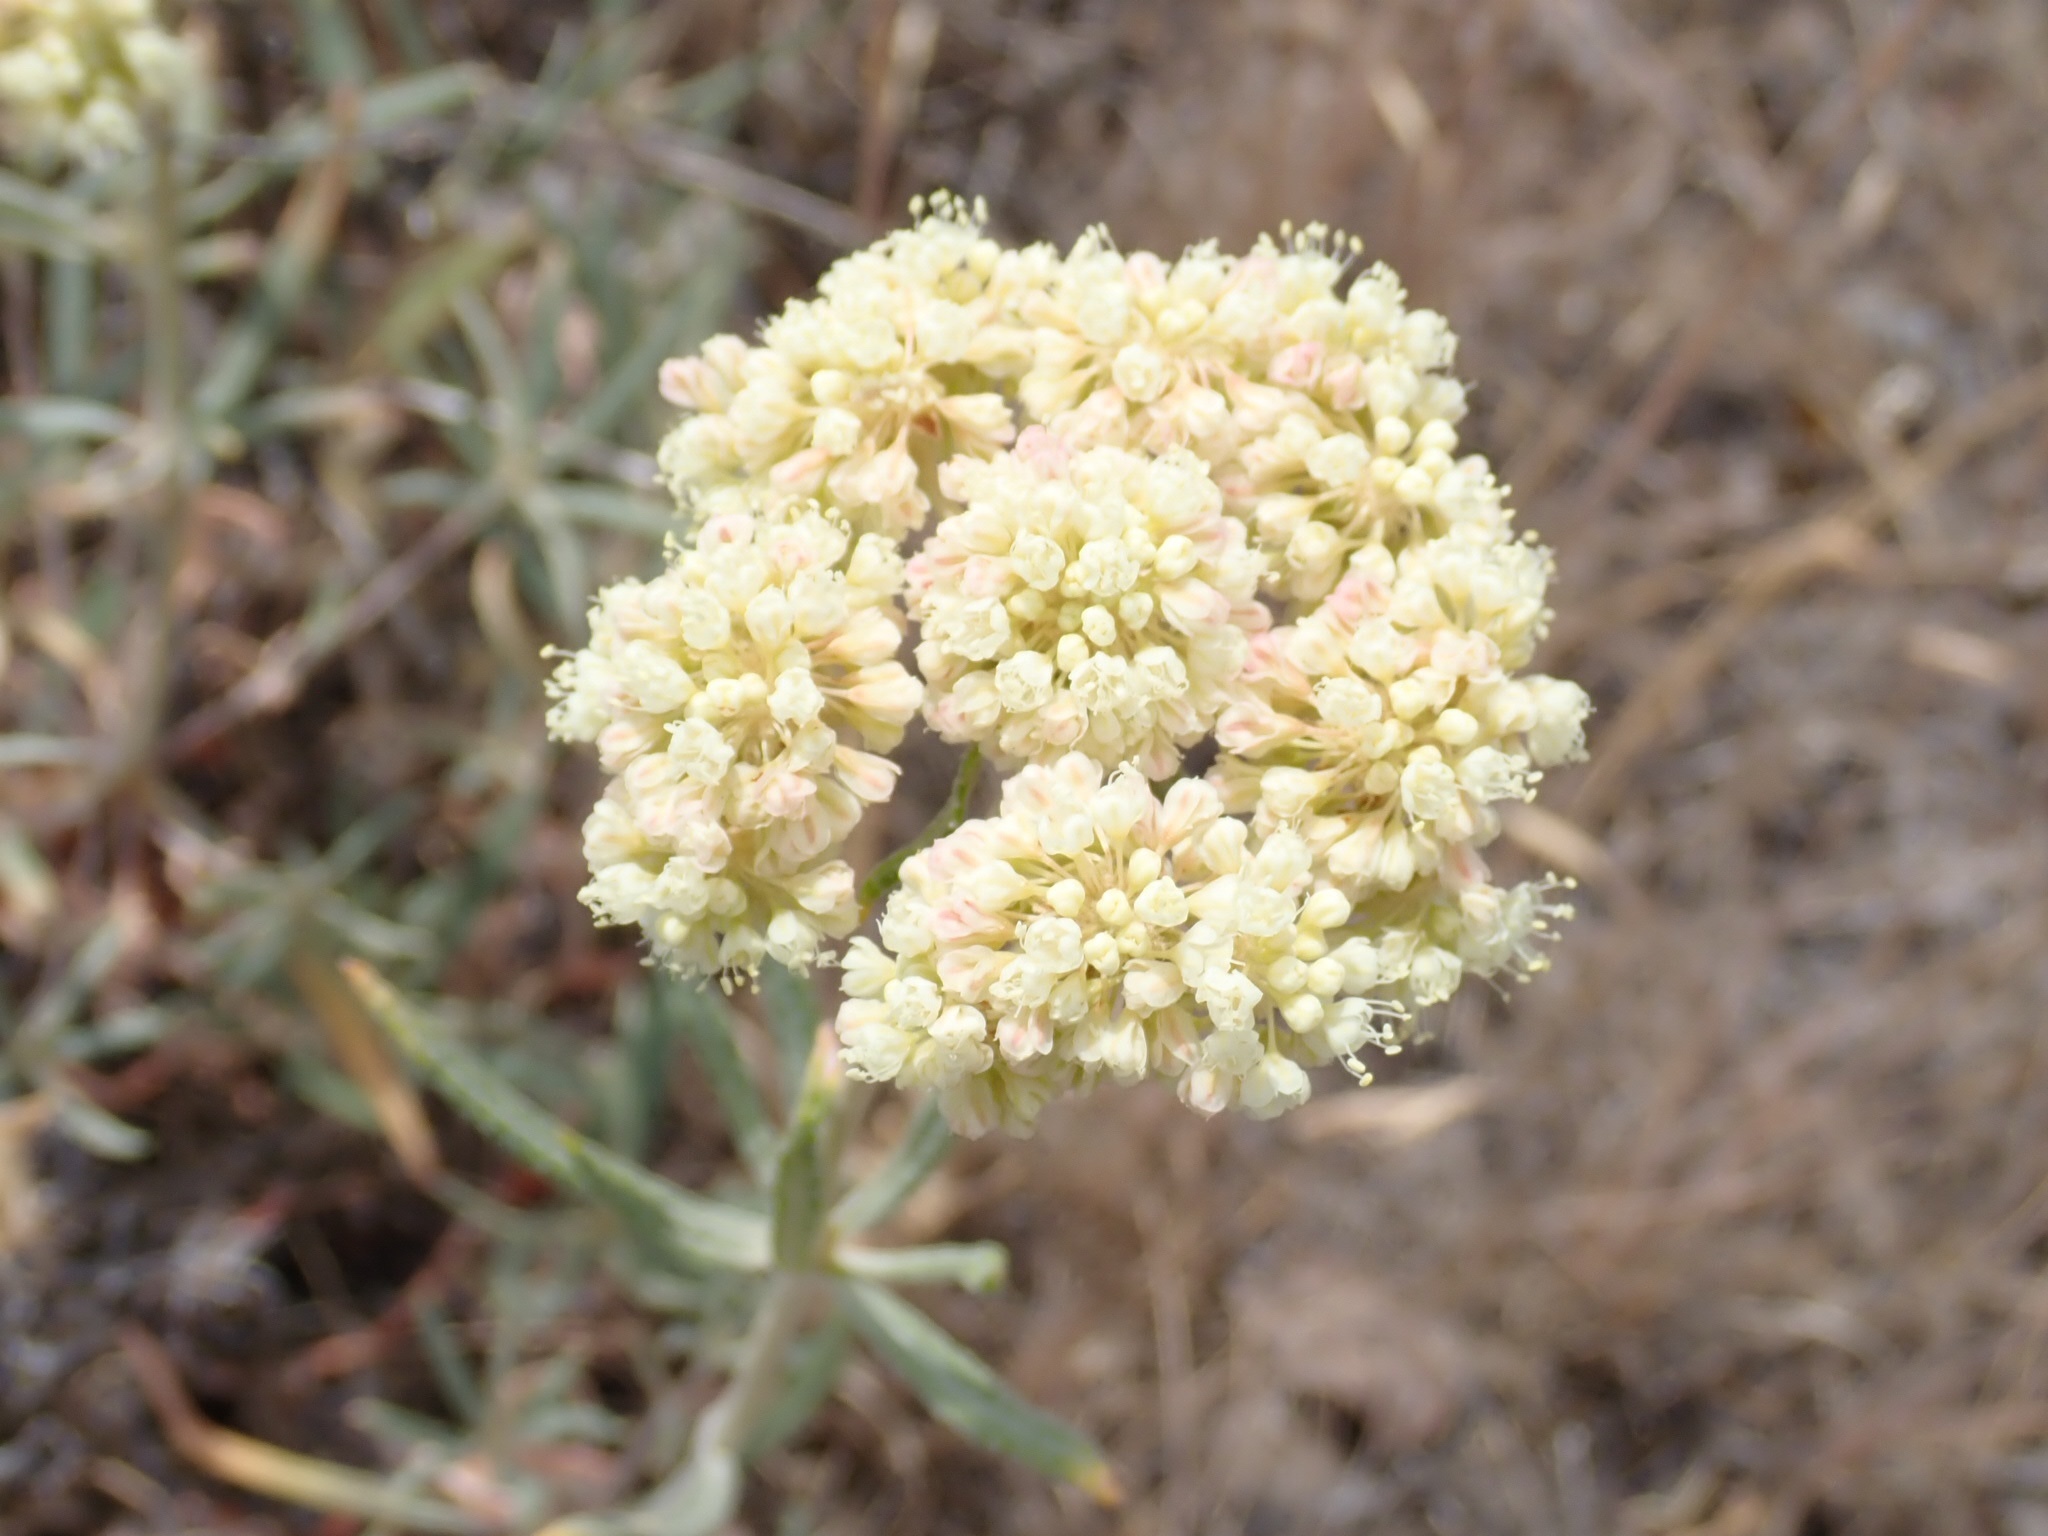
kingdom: Plantae
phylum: Tracheophyta
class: Magnoliopsida
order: Caryophyllales
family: Polygonaceae
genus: Eriogonum
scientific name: Eriogonum heracleoides
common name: Wyeth's buckwheat
